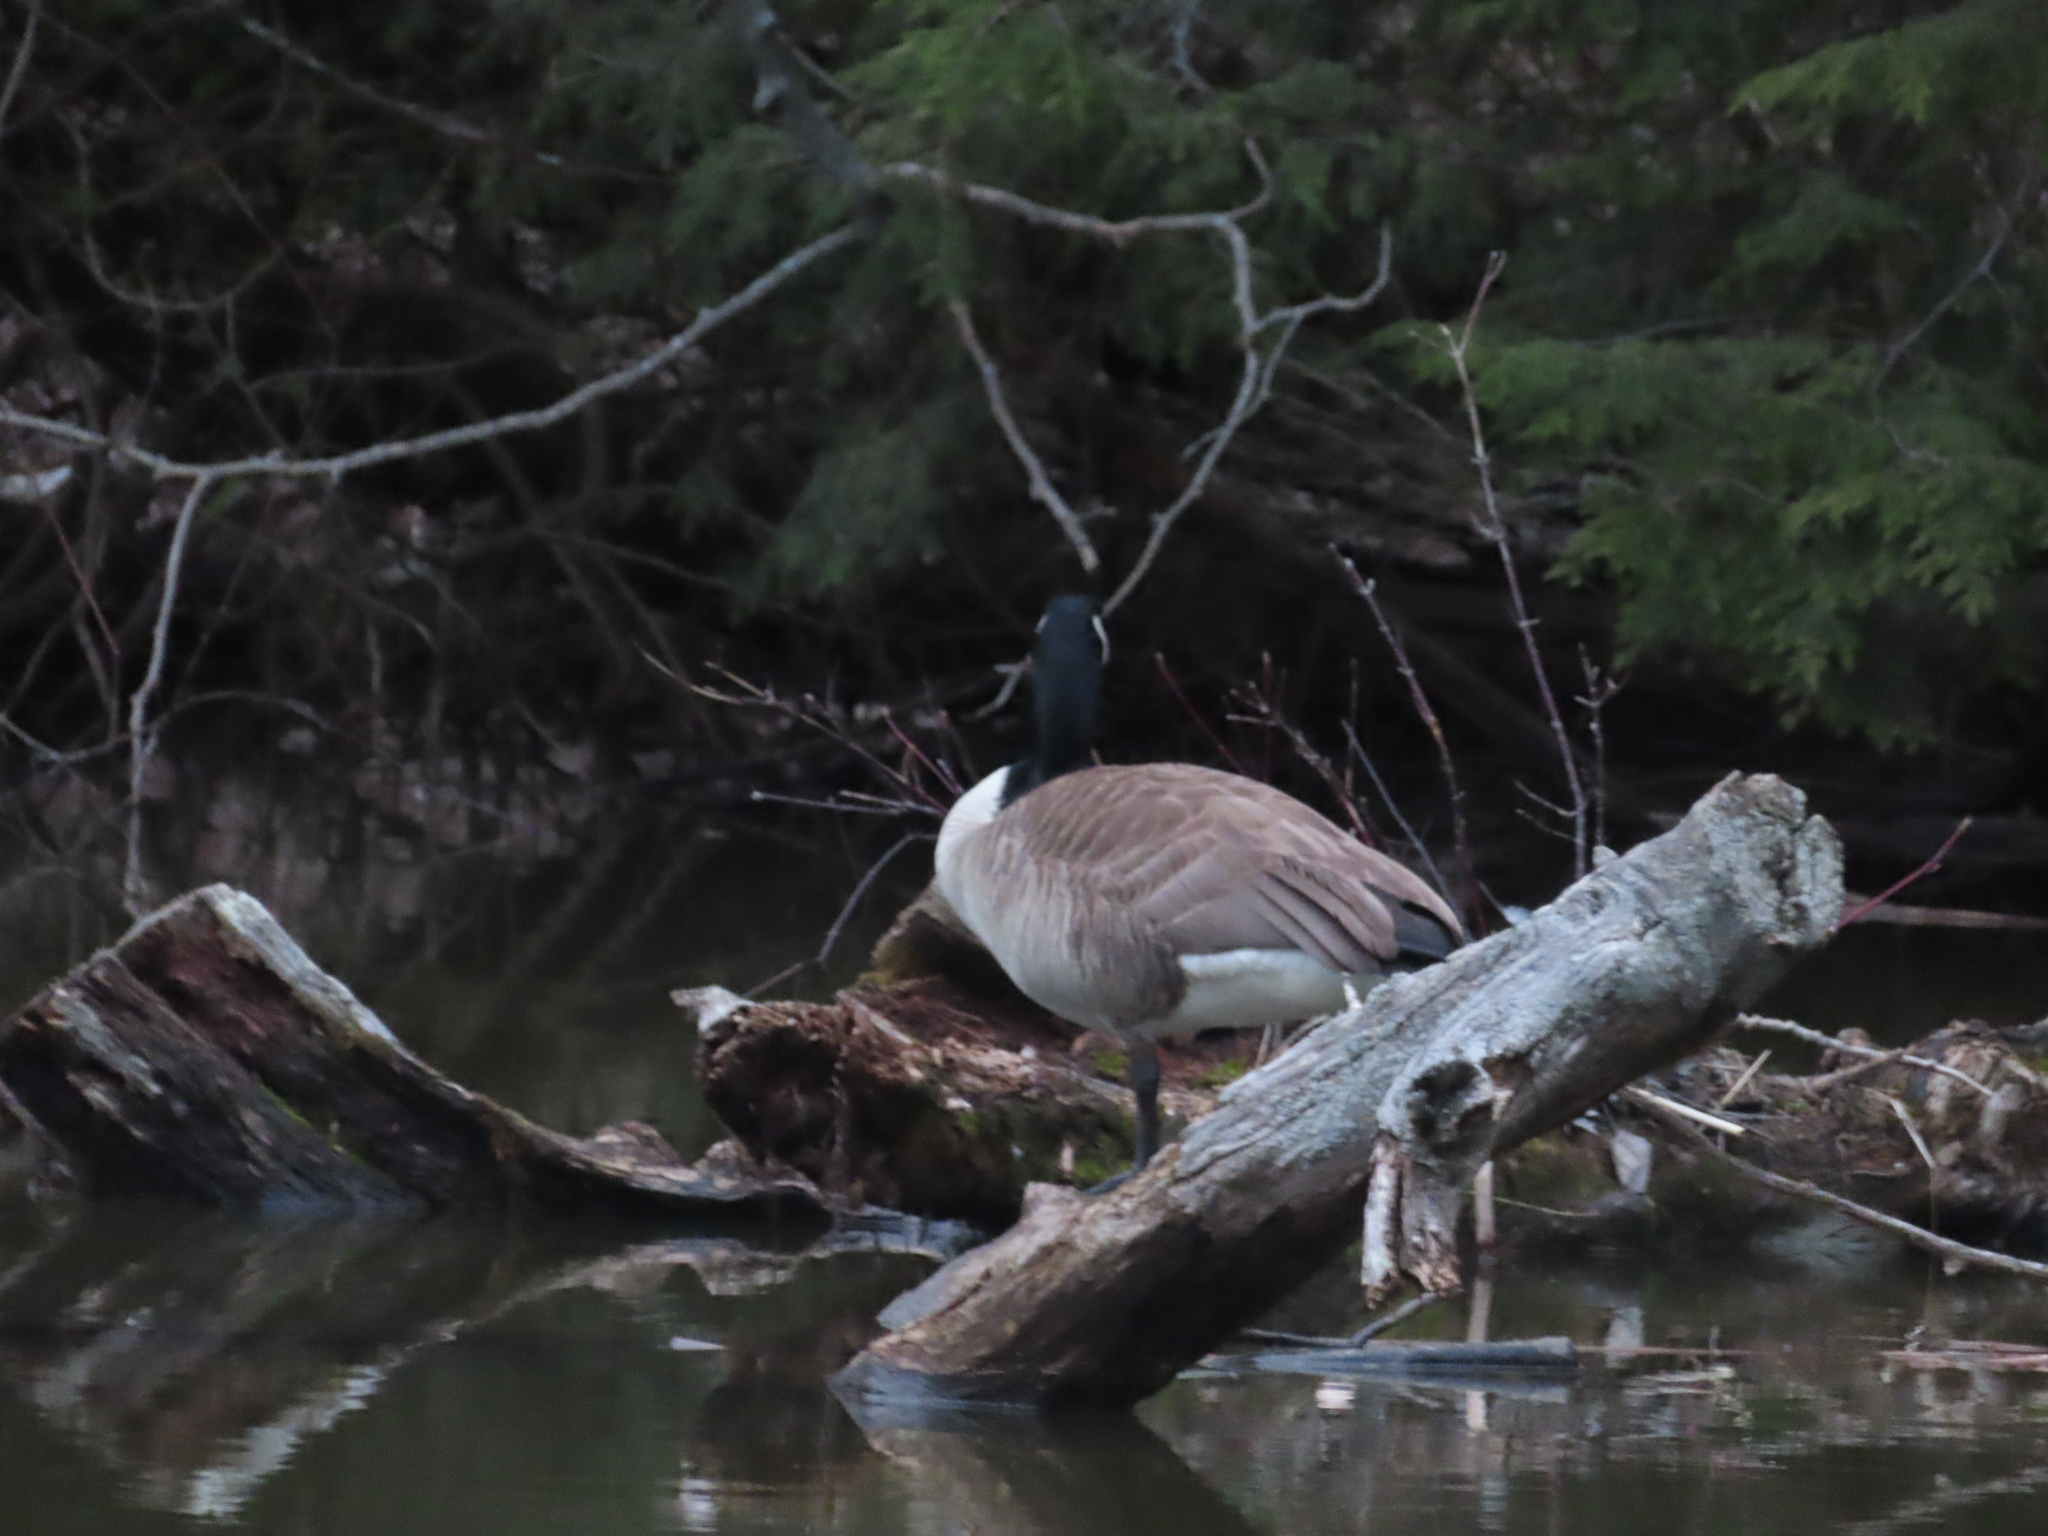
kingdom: Animalia
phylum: Chordata
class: Aves
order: Anseriformes
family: Anatidae
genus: Branta
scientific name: Branta canadensis
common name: Canada goose
